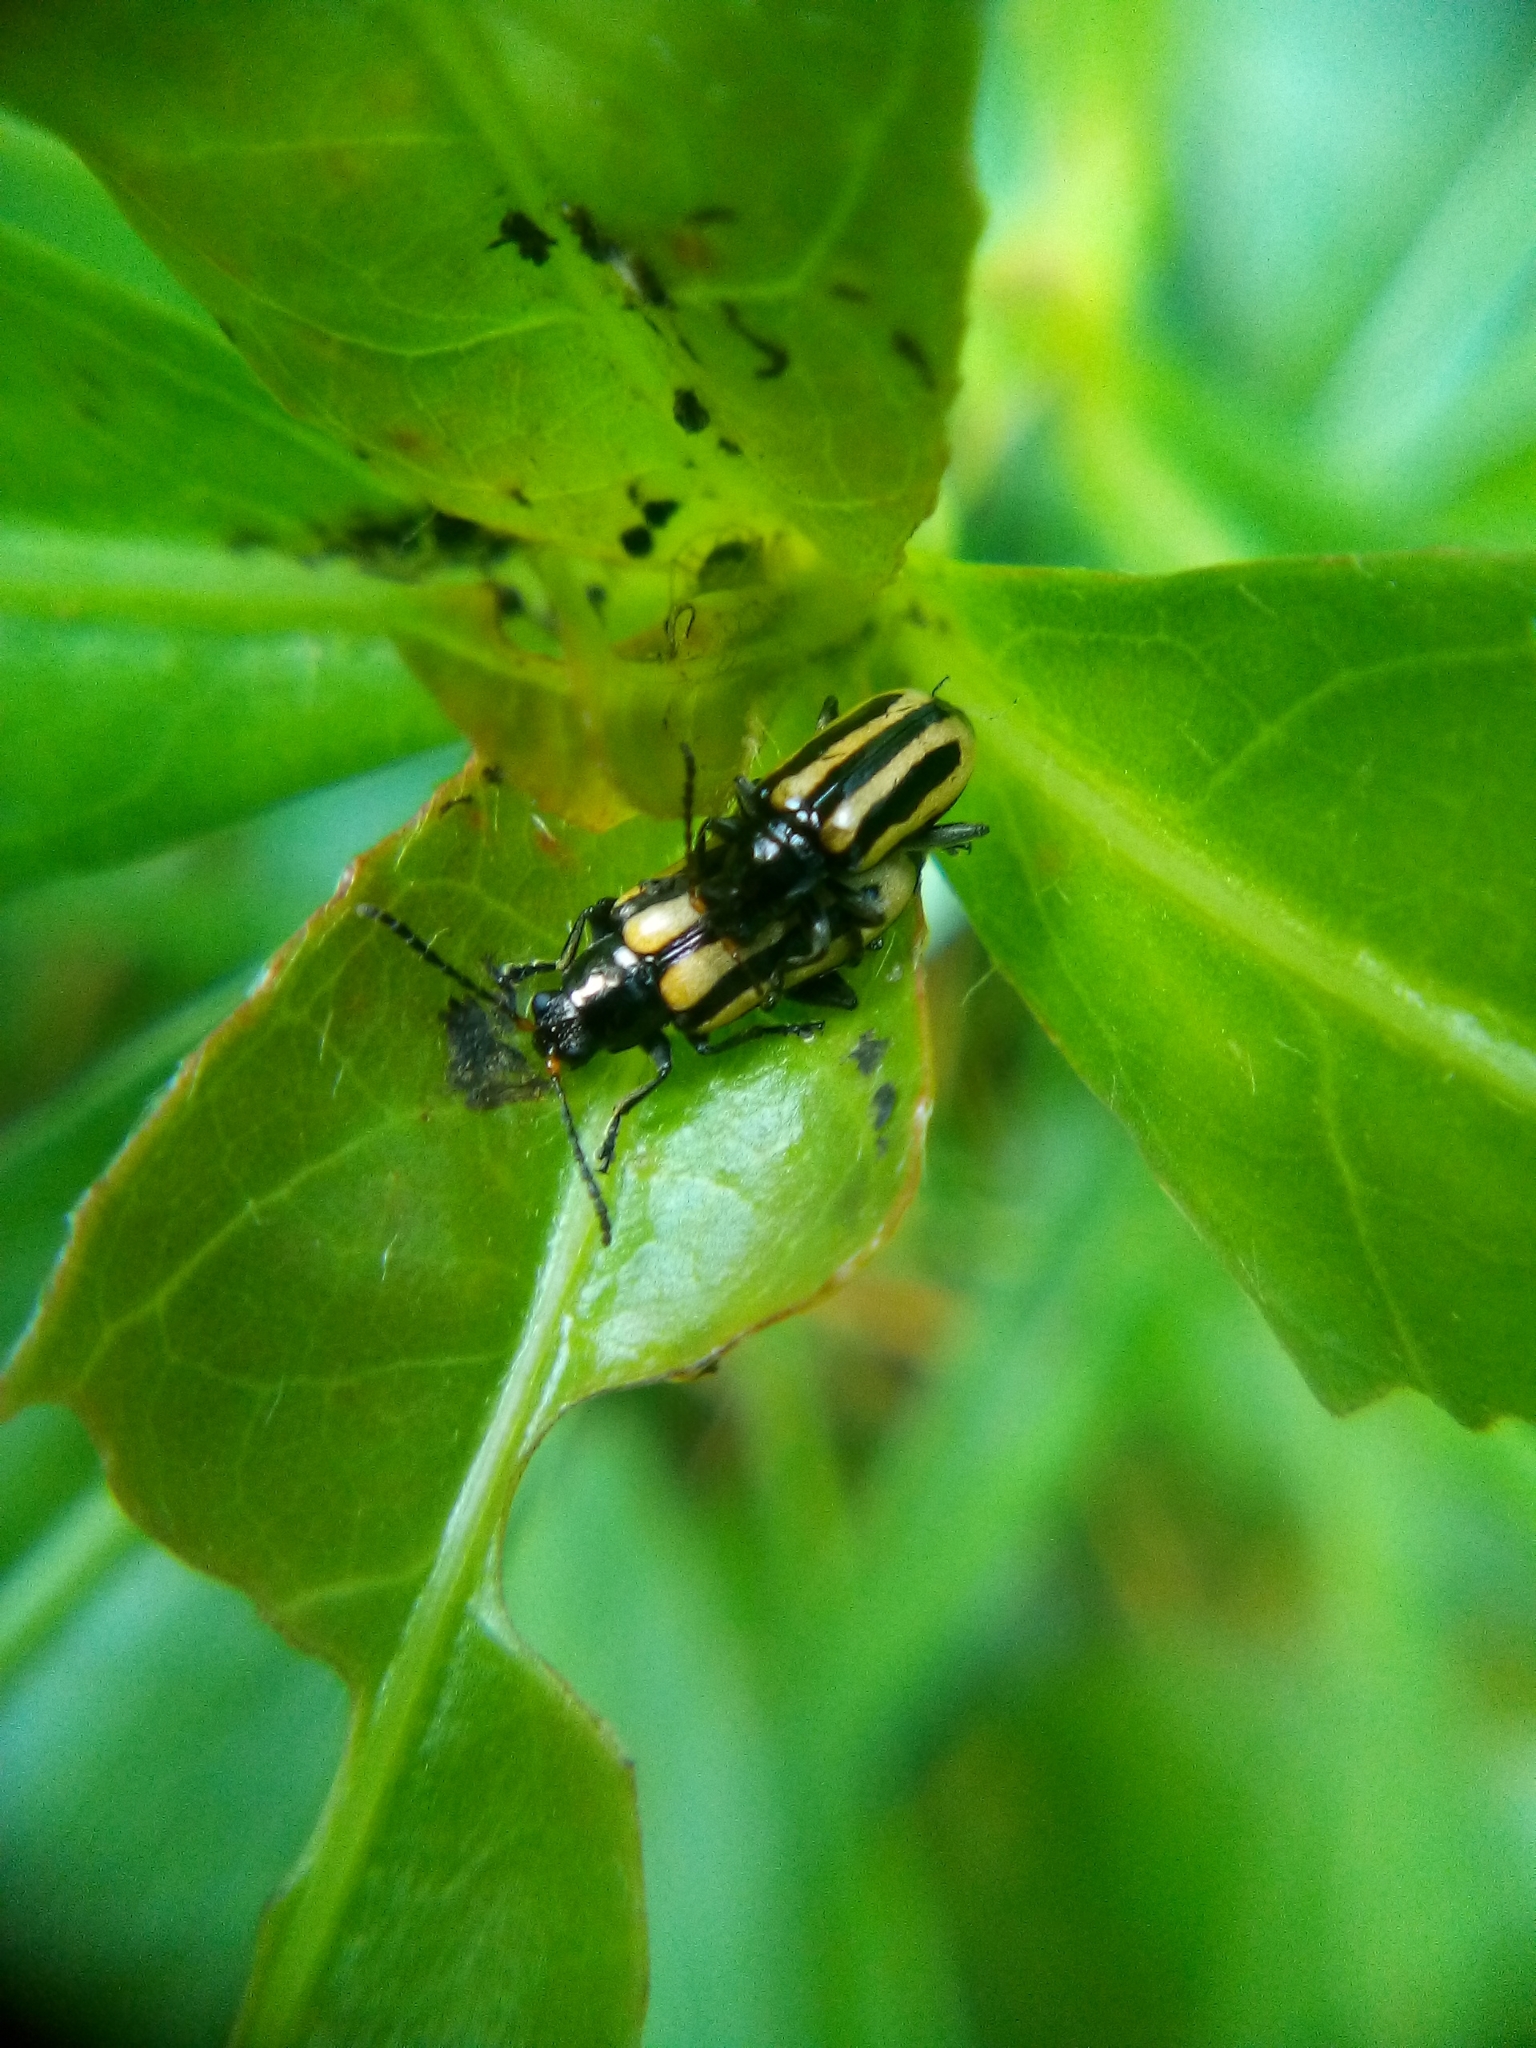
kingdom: Animalia
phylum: Arthropoda
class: Insecta
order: Coleoptera
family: Chrysomelidae
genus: Agasicles
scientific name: Agasicles hygrophila
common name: Alligatorweed flea beetle
